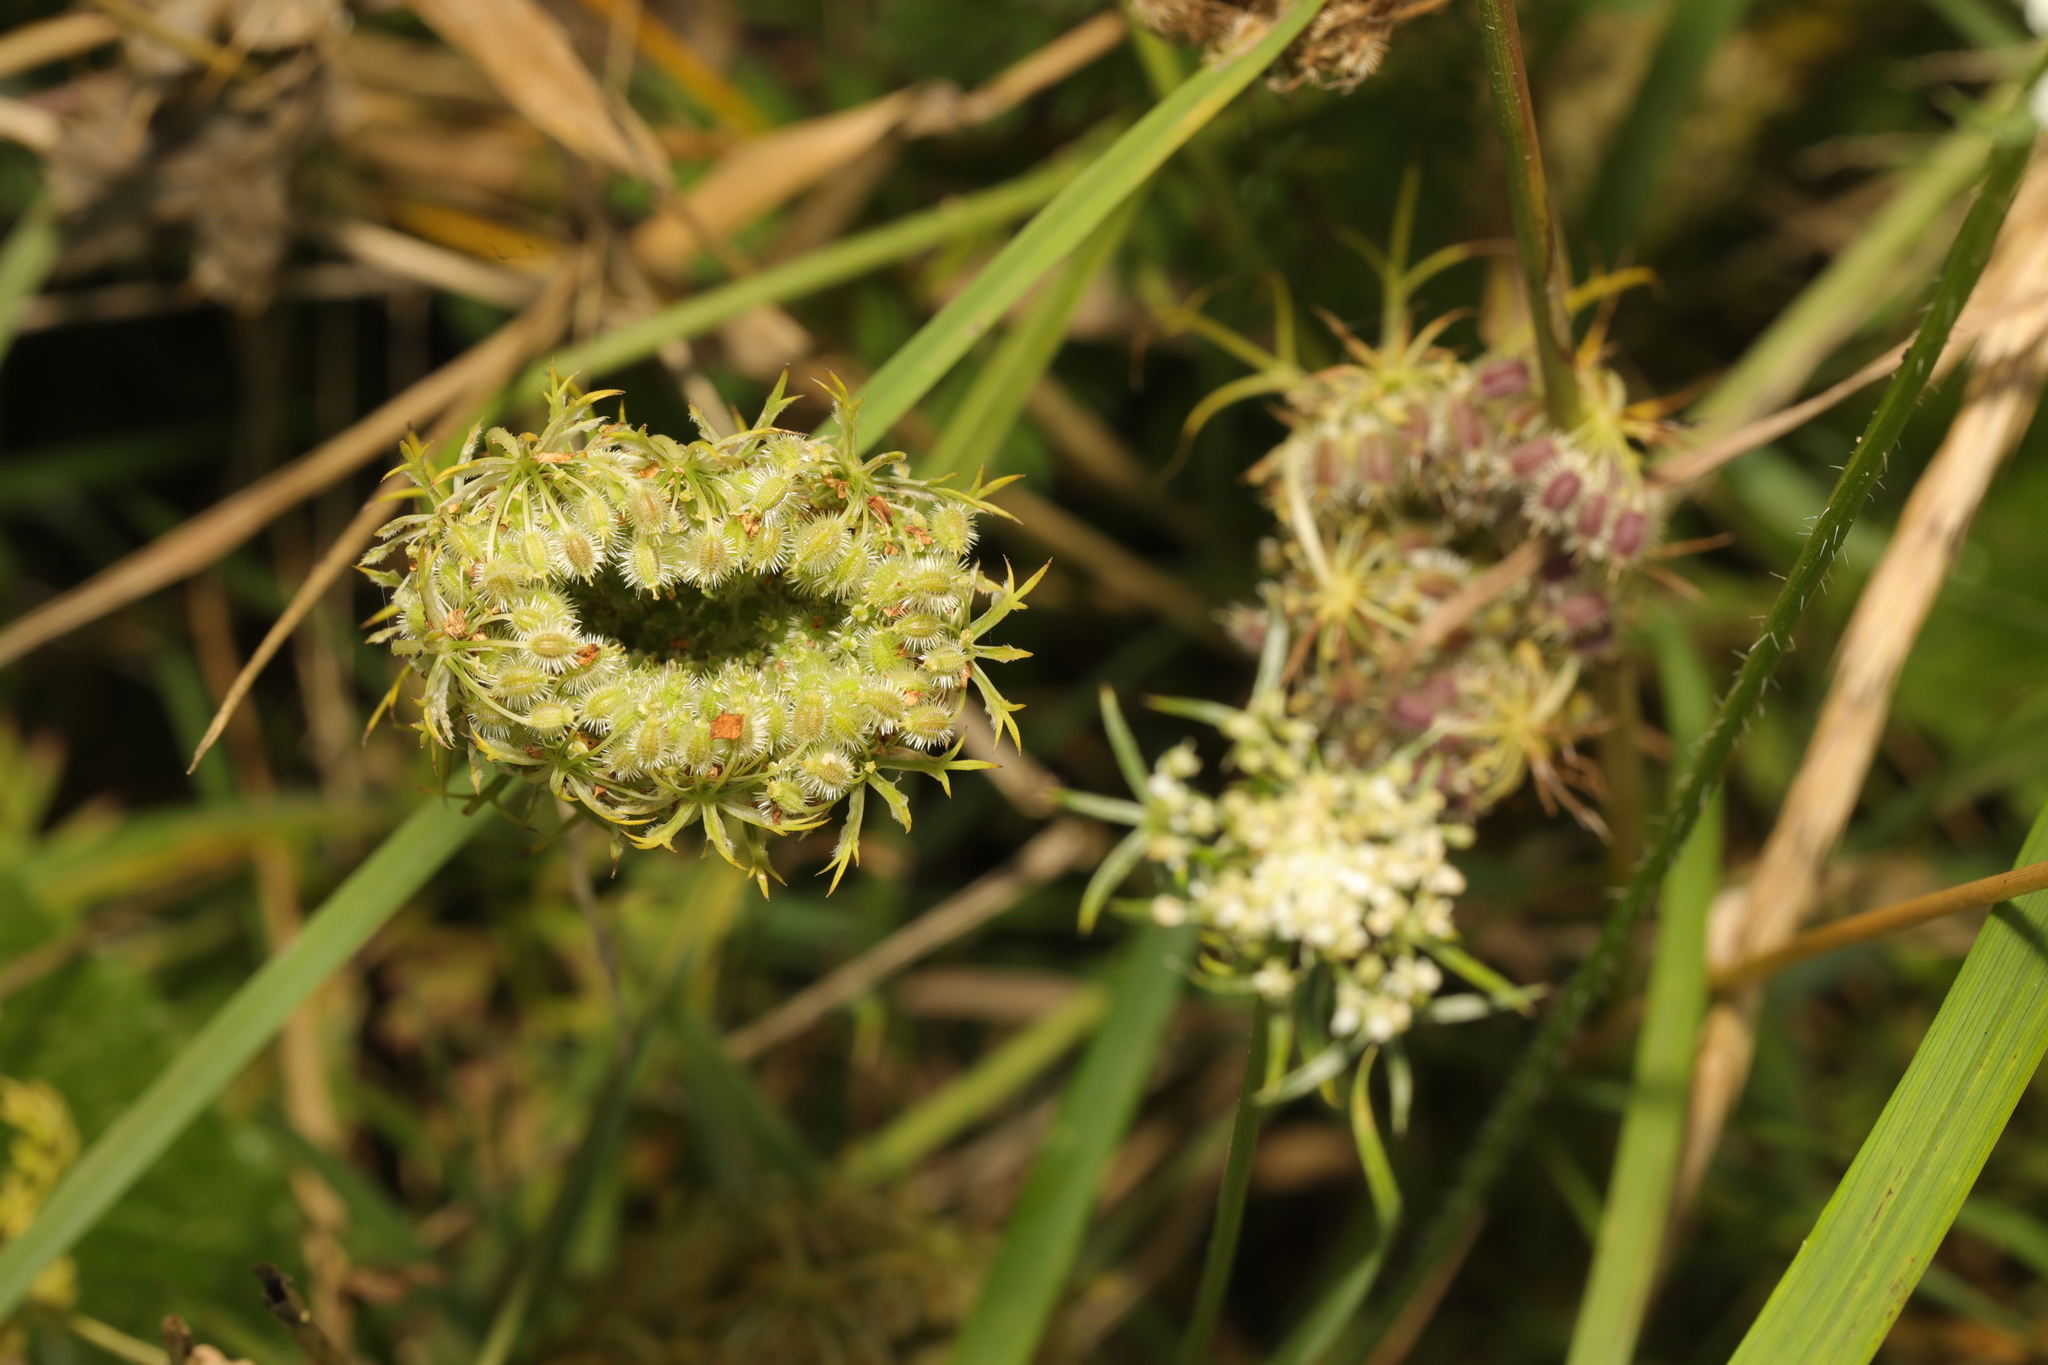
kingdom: Plantae
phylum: Tracheophyta
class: Magnoliopsida
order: Apiales
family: Apiaceae
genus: Daucus
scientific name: Daucus carota
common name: Wild carrot
